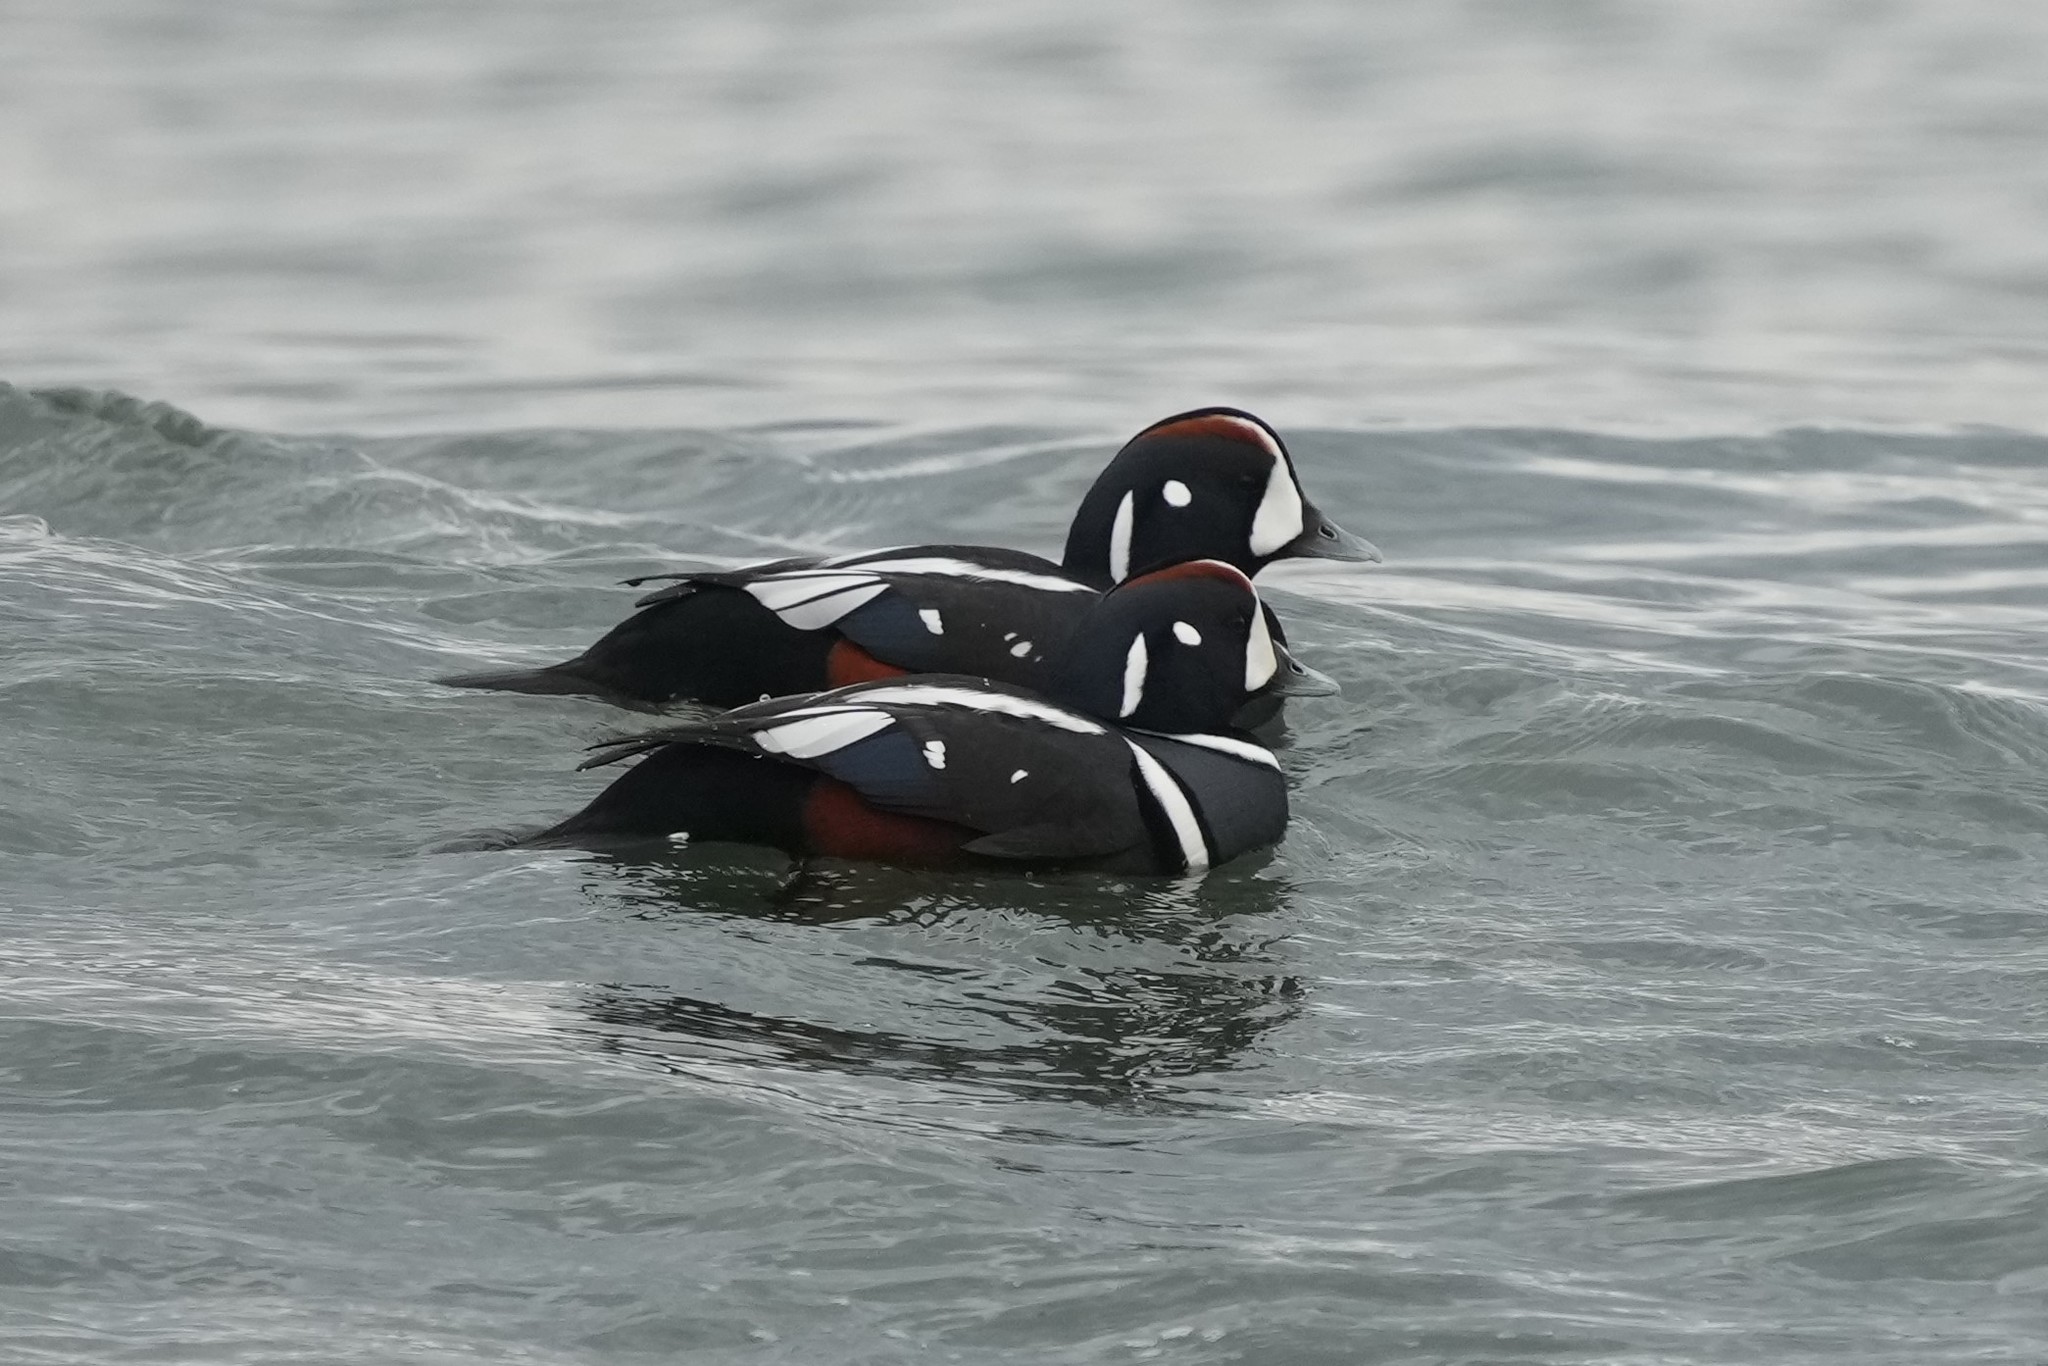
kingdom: Animalia
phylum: Chordata
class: Aves
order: Anseriformes
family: Anatidae
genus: Histrionicus
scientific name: Histrionicus histrionicus
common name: Harlequin duck
